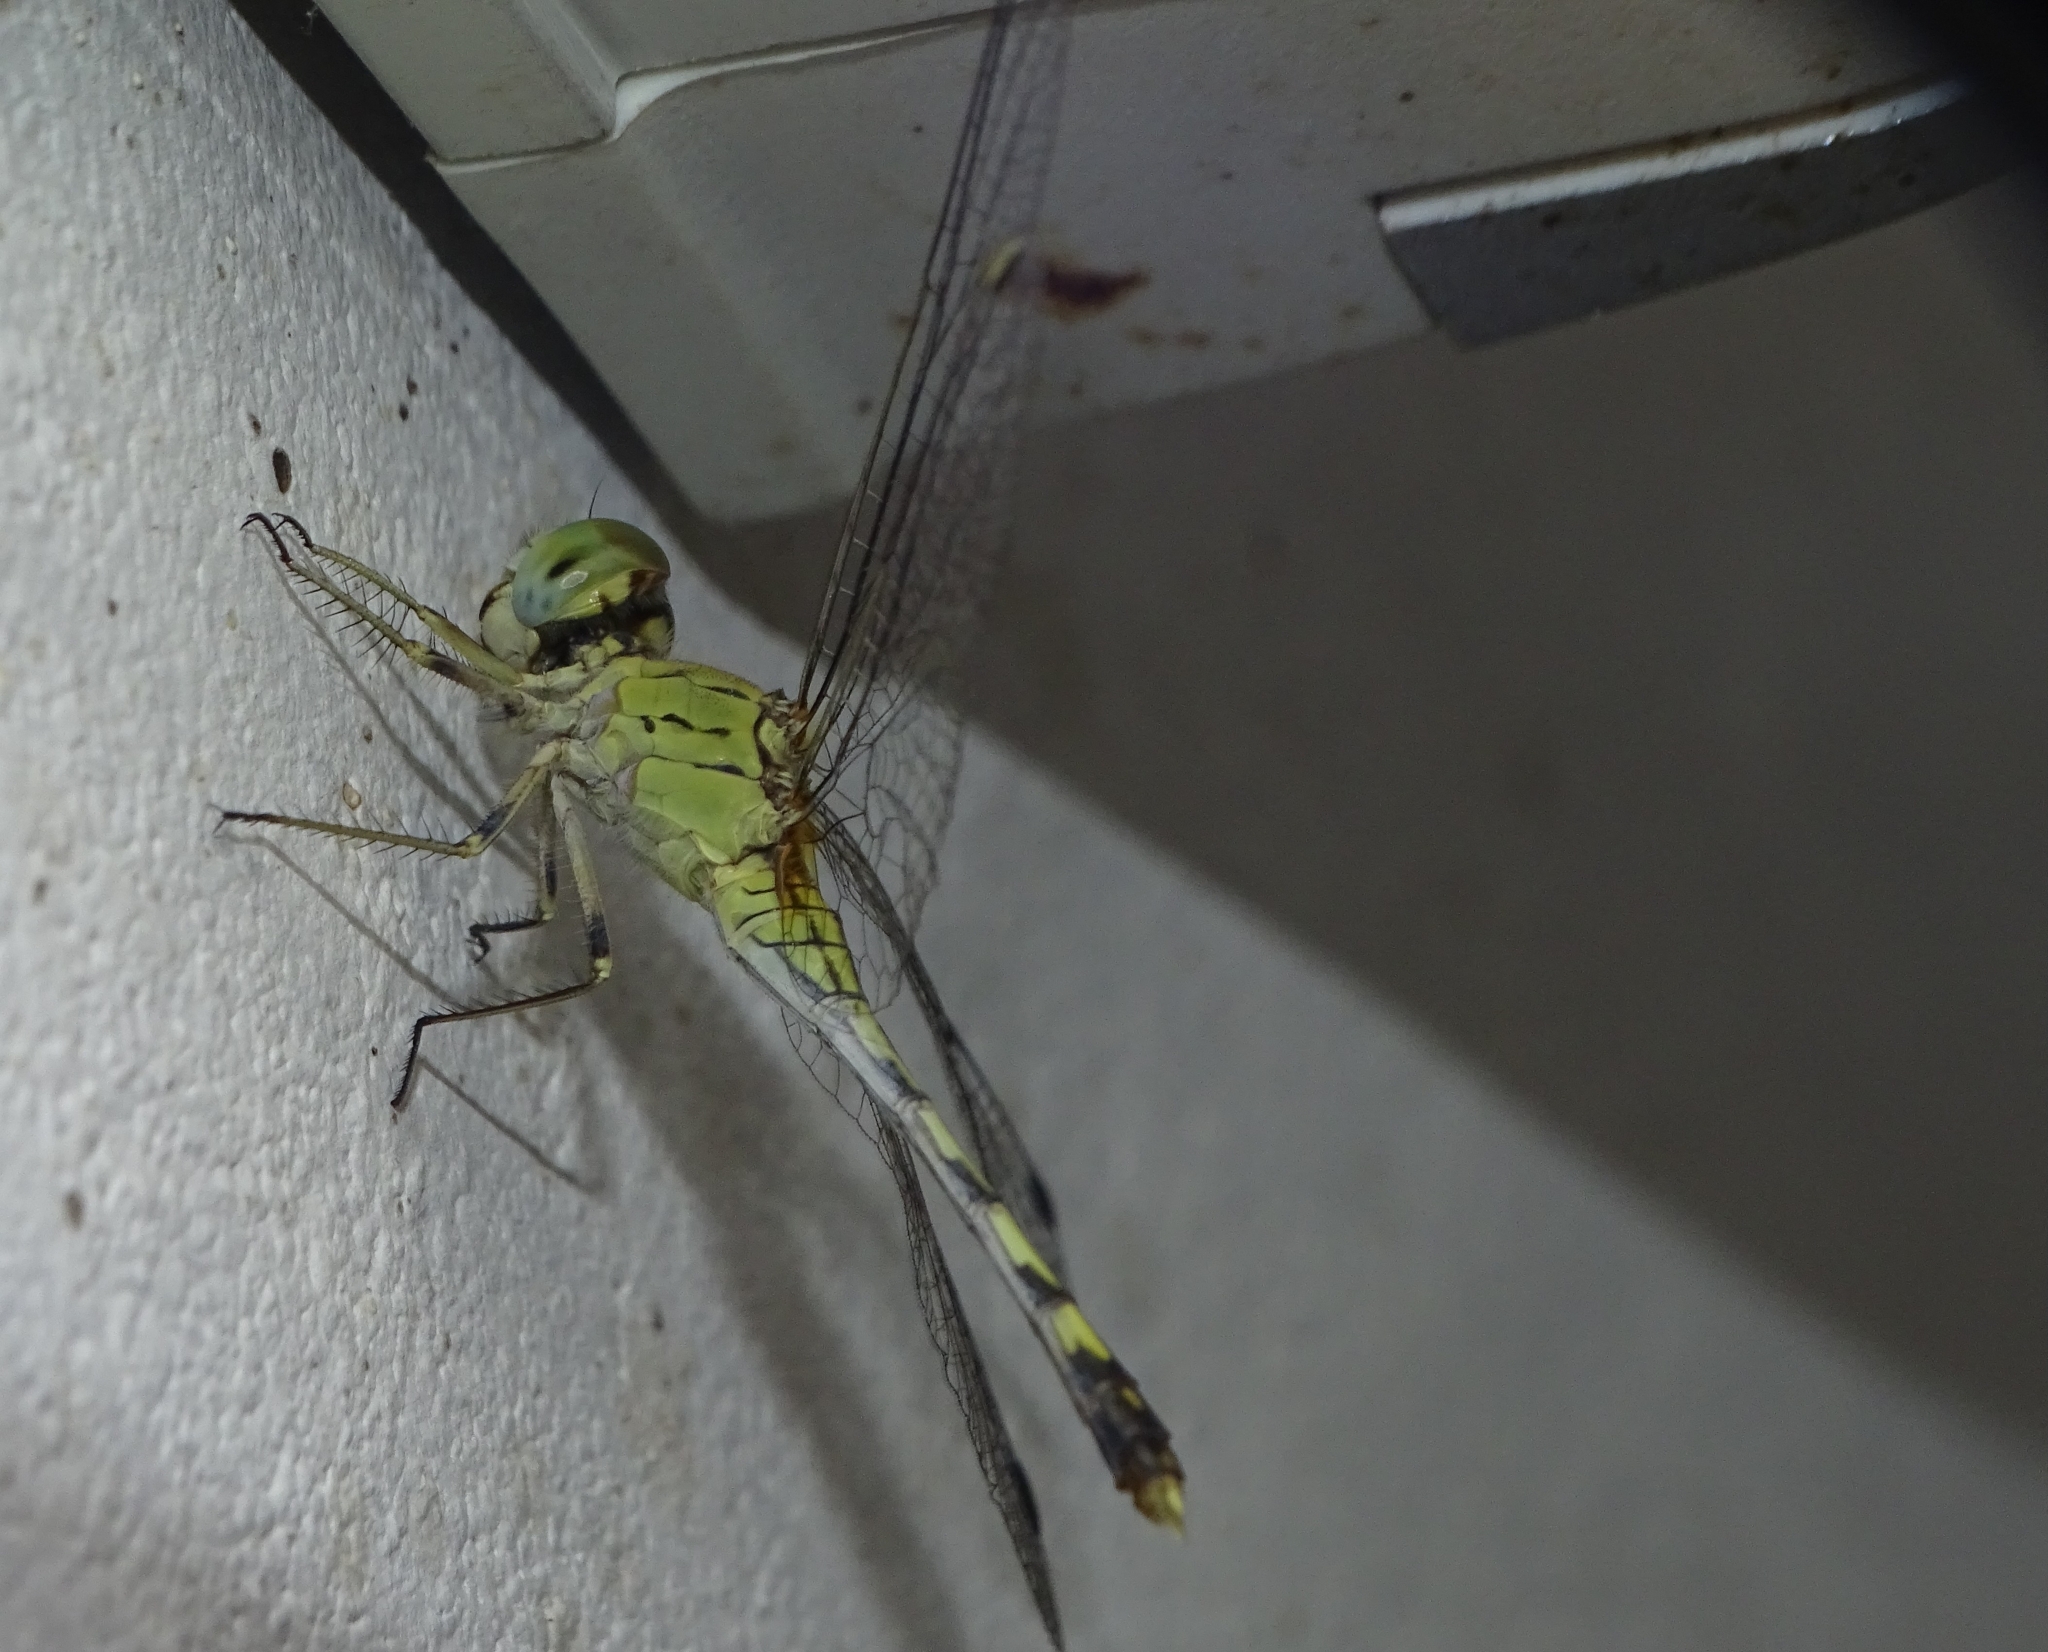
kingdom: Animalia
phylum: Arthropoda
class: Insecta
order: Odonata
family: Libellulidae
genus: Diplacodes
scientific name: Diplacodes trivialis
